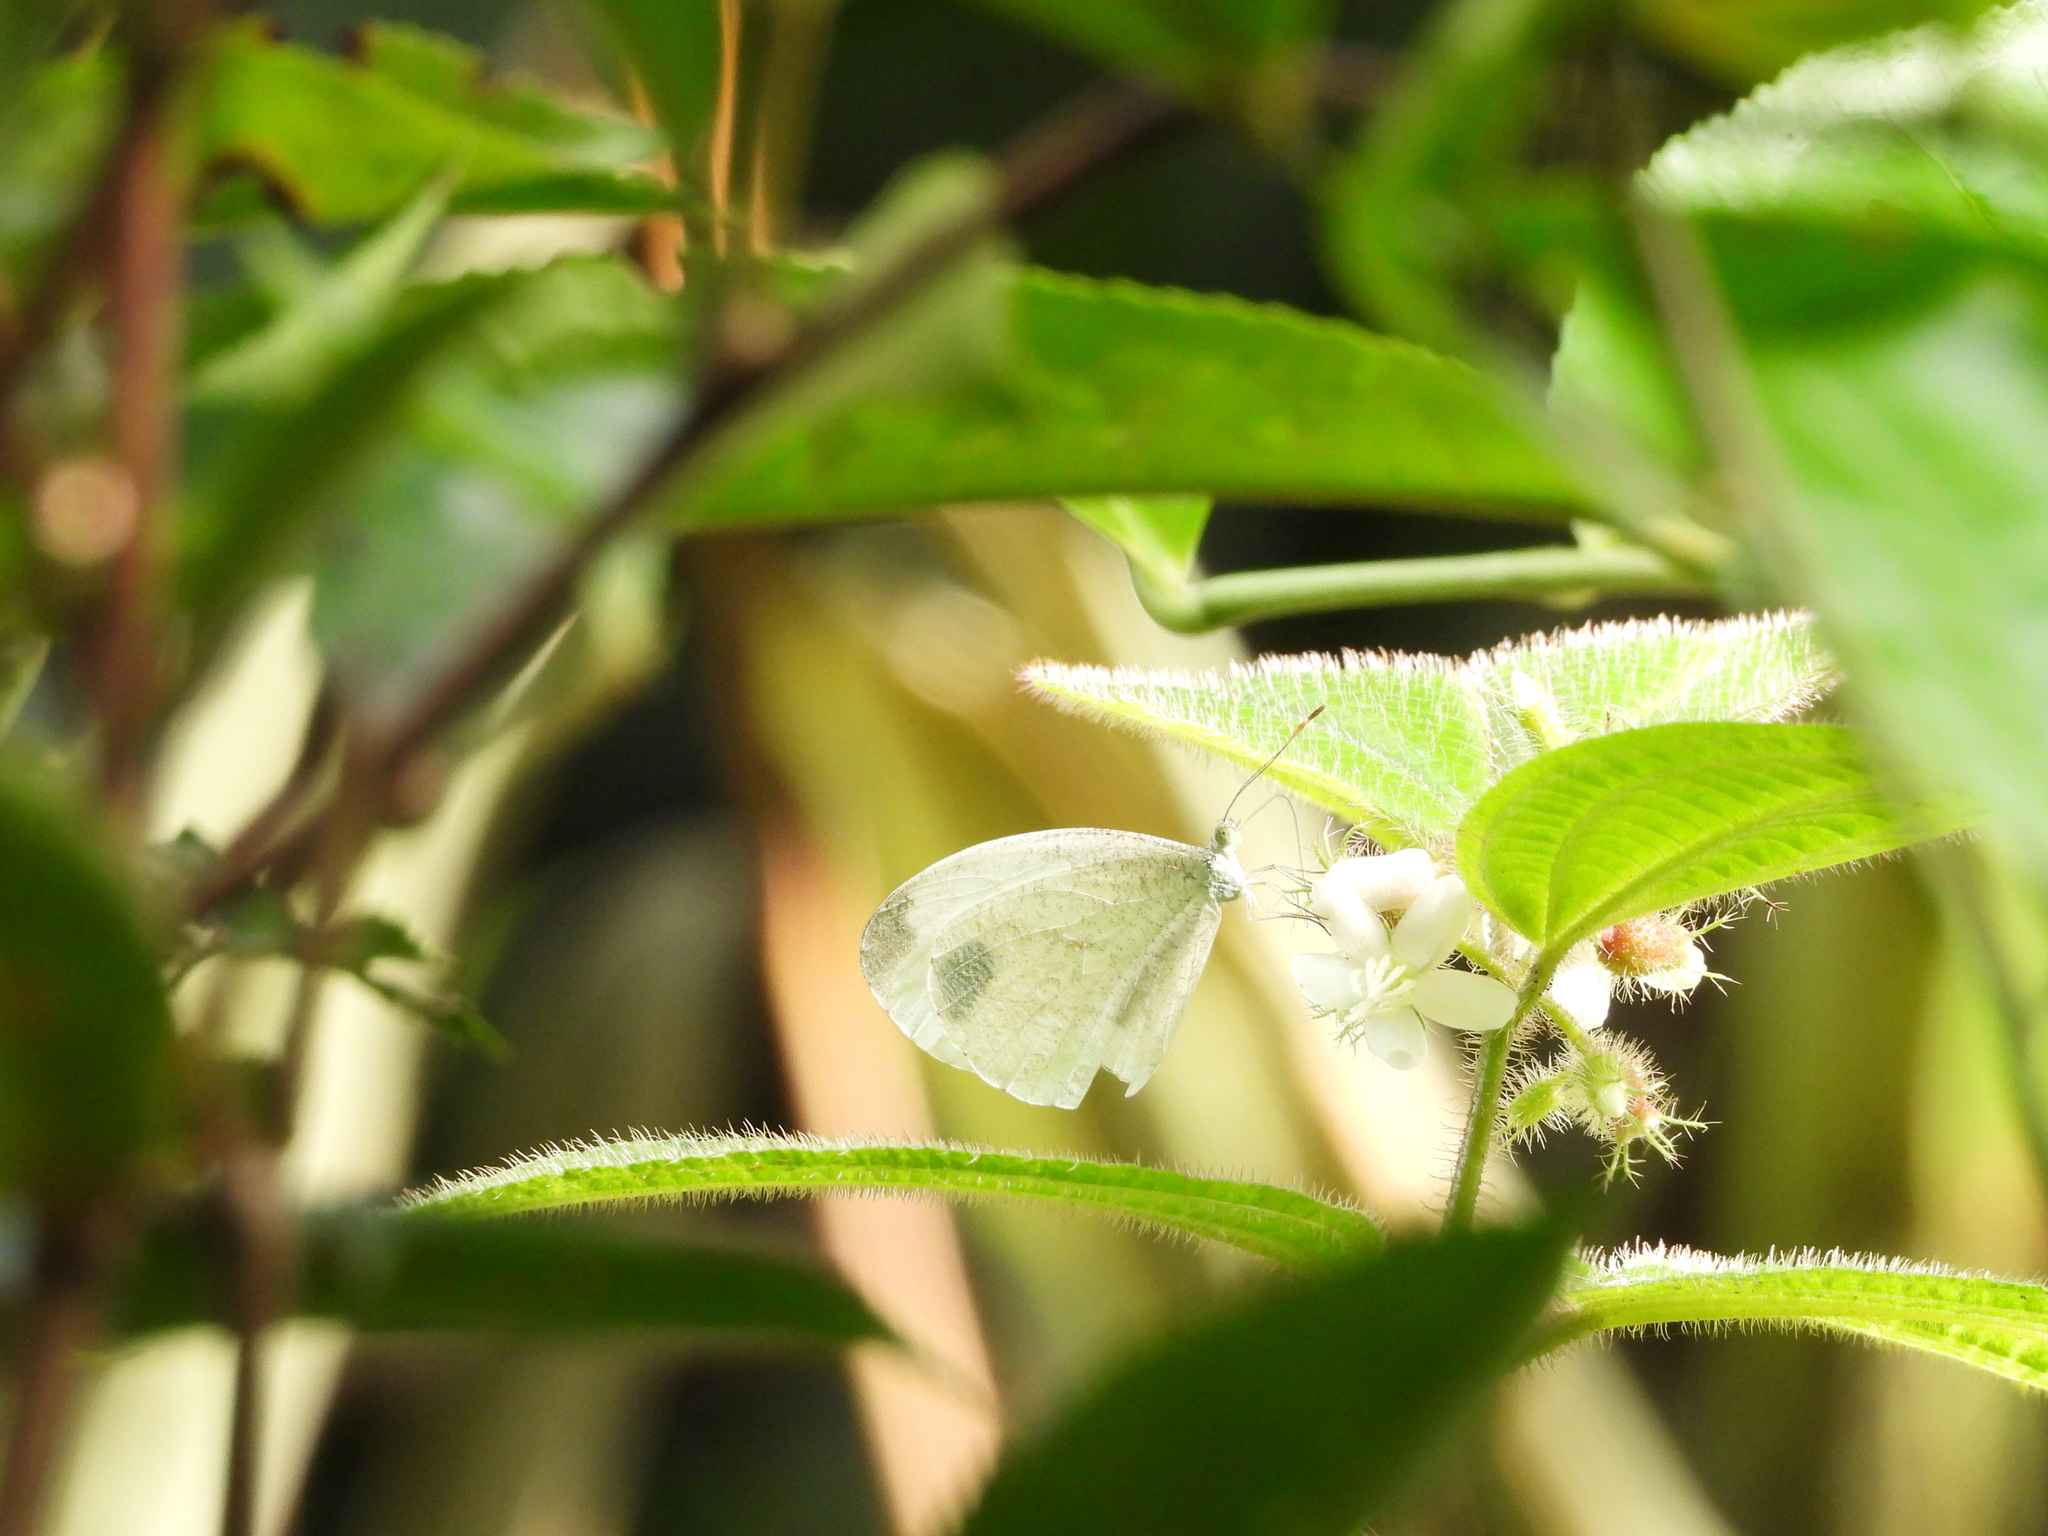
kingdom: Animalia
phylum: Arthropoda
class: Insecta
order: Lepidoptera
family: Pieridae
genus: Leptosia
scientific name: Leptosia nina
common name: Psyche
